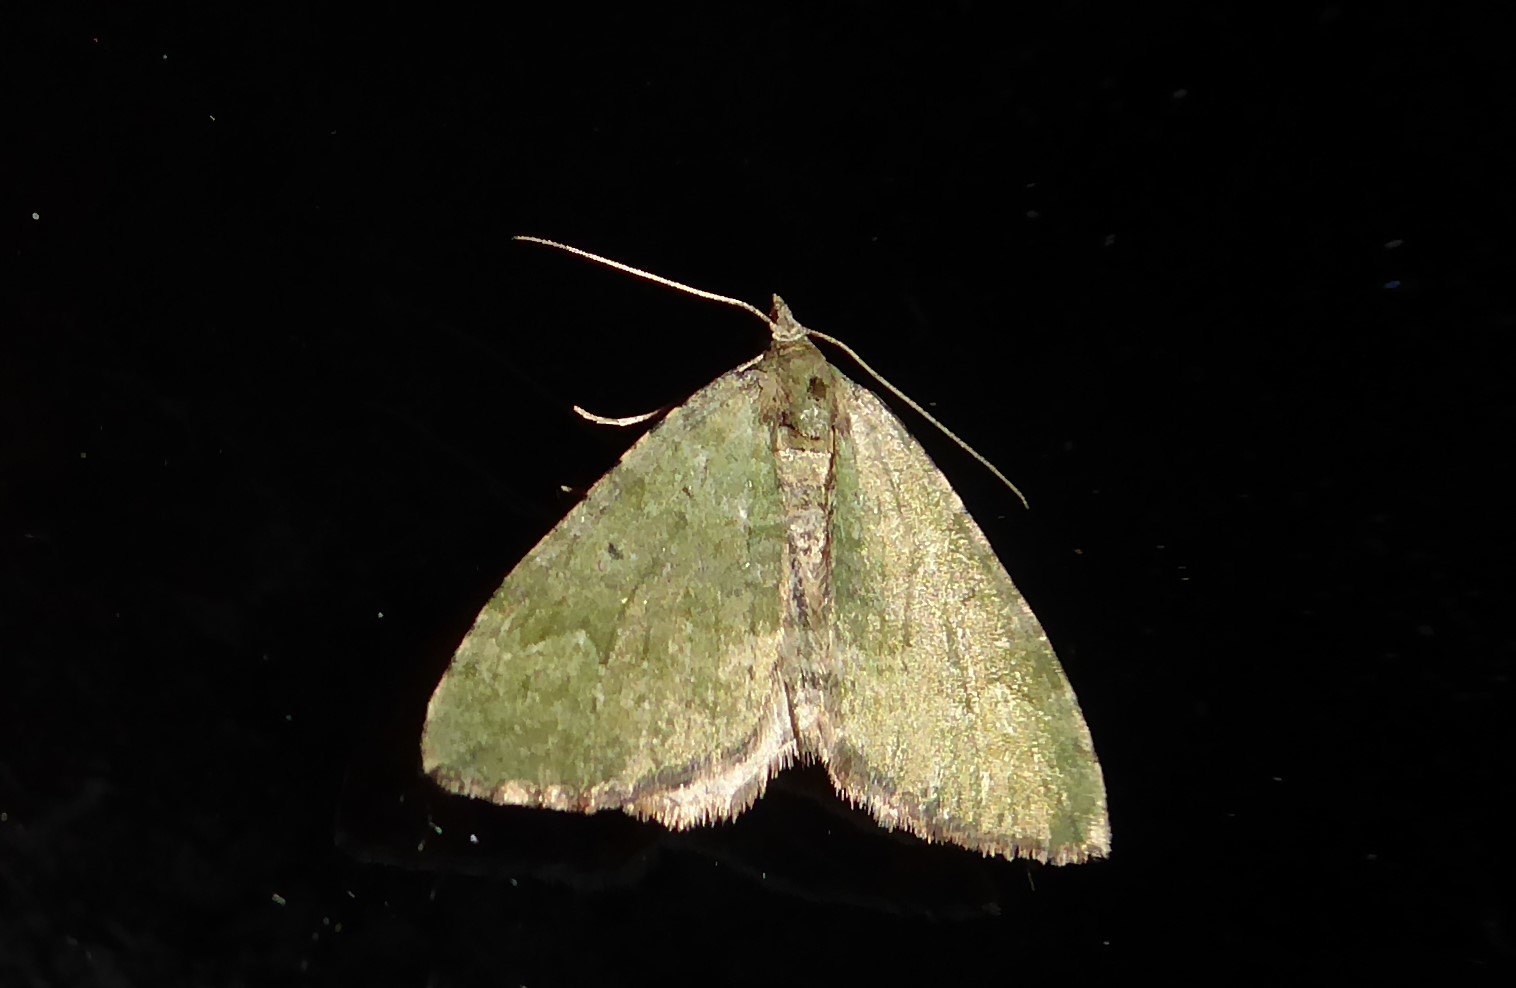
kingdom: Animalia
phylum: Arthropoda
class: Insecta
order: Lepidoptera
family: Geometridae
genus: Epyaxa
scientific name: Epyaxa rosearia
